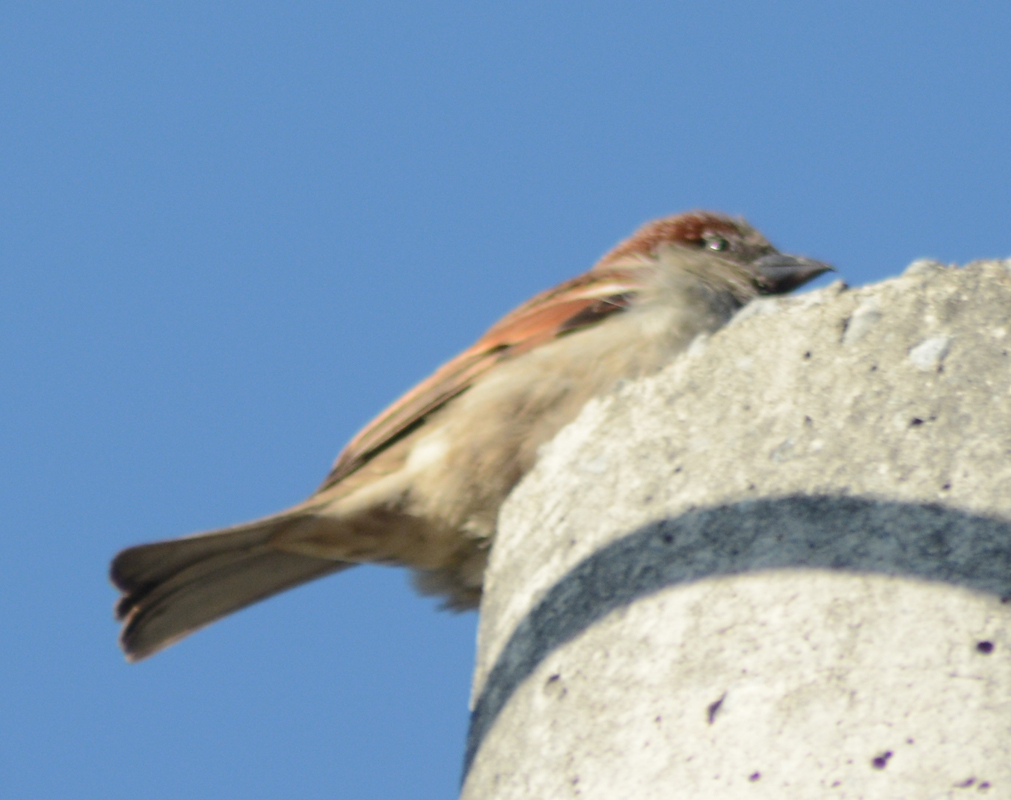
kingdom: Animalia
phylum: Chordata
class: Aves
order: Passeriformes
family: Passeridae
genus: Passer
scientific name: Passer domesticus
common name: House sparrow
